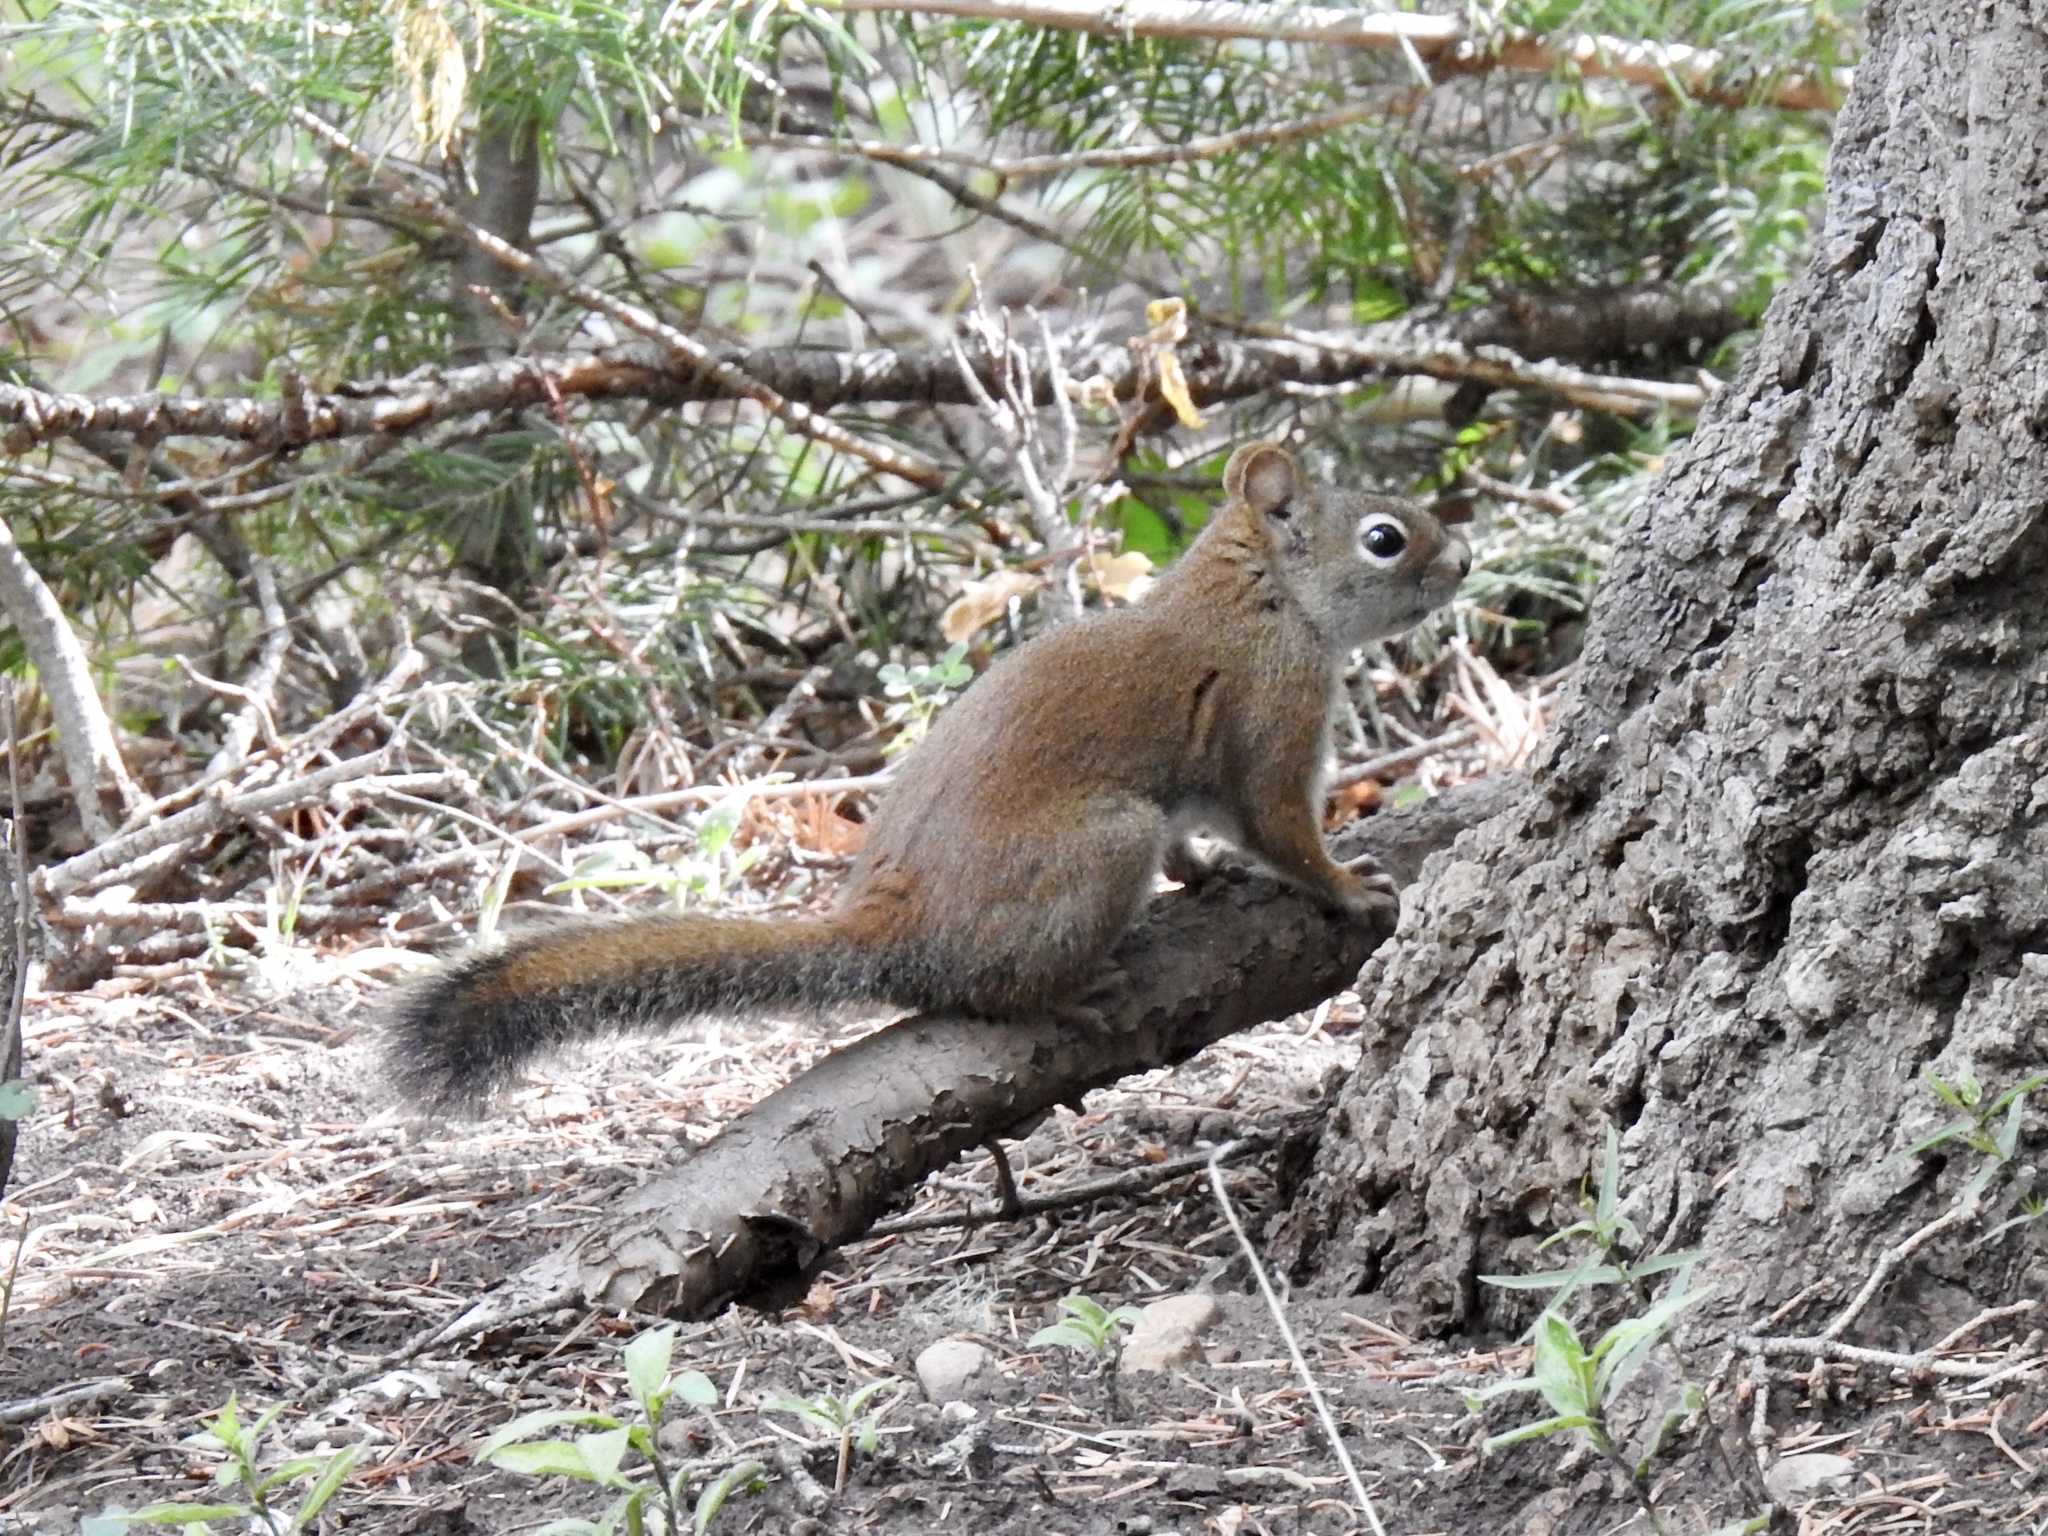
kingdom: Animalia
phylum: Chordata
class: Mammalia
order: Rodentia
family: Sciuridae
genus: Tamiasciurus
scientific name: Tamiasciurus hudsonicus
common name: Red squirrel
